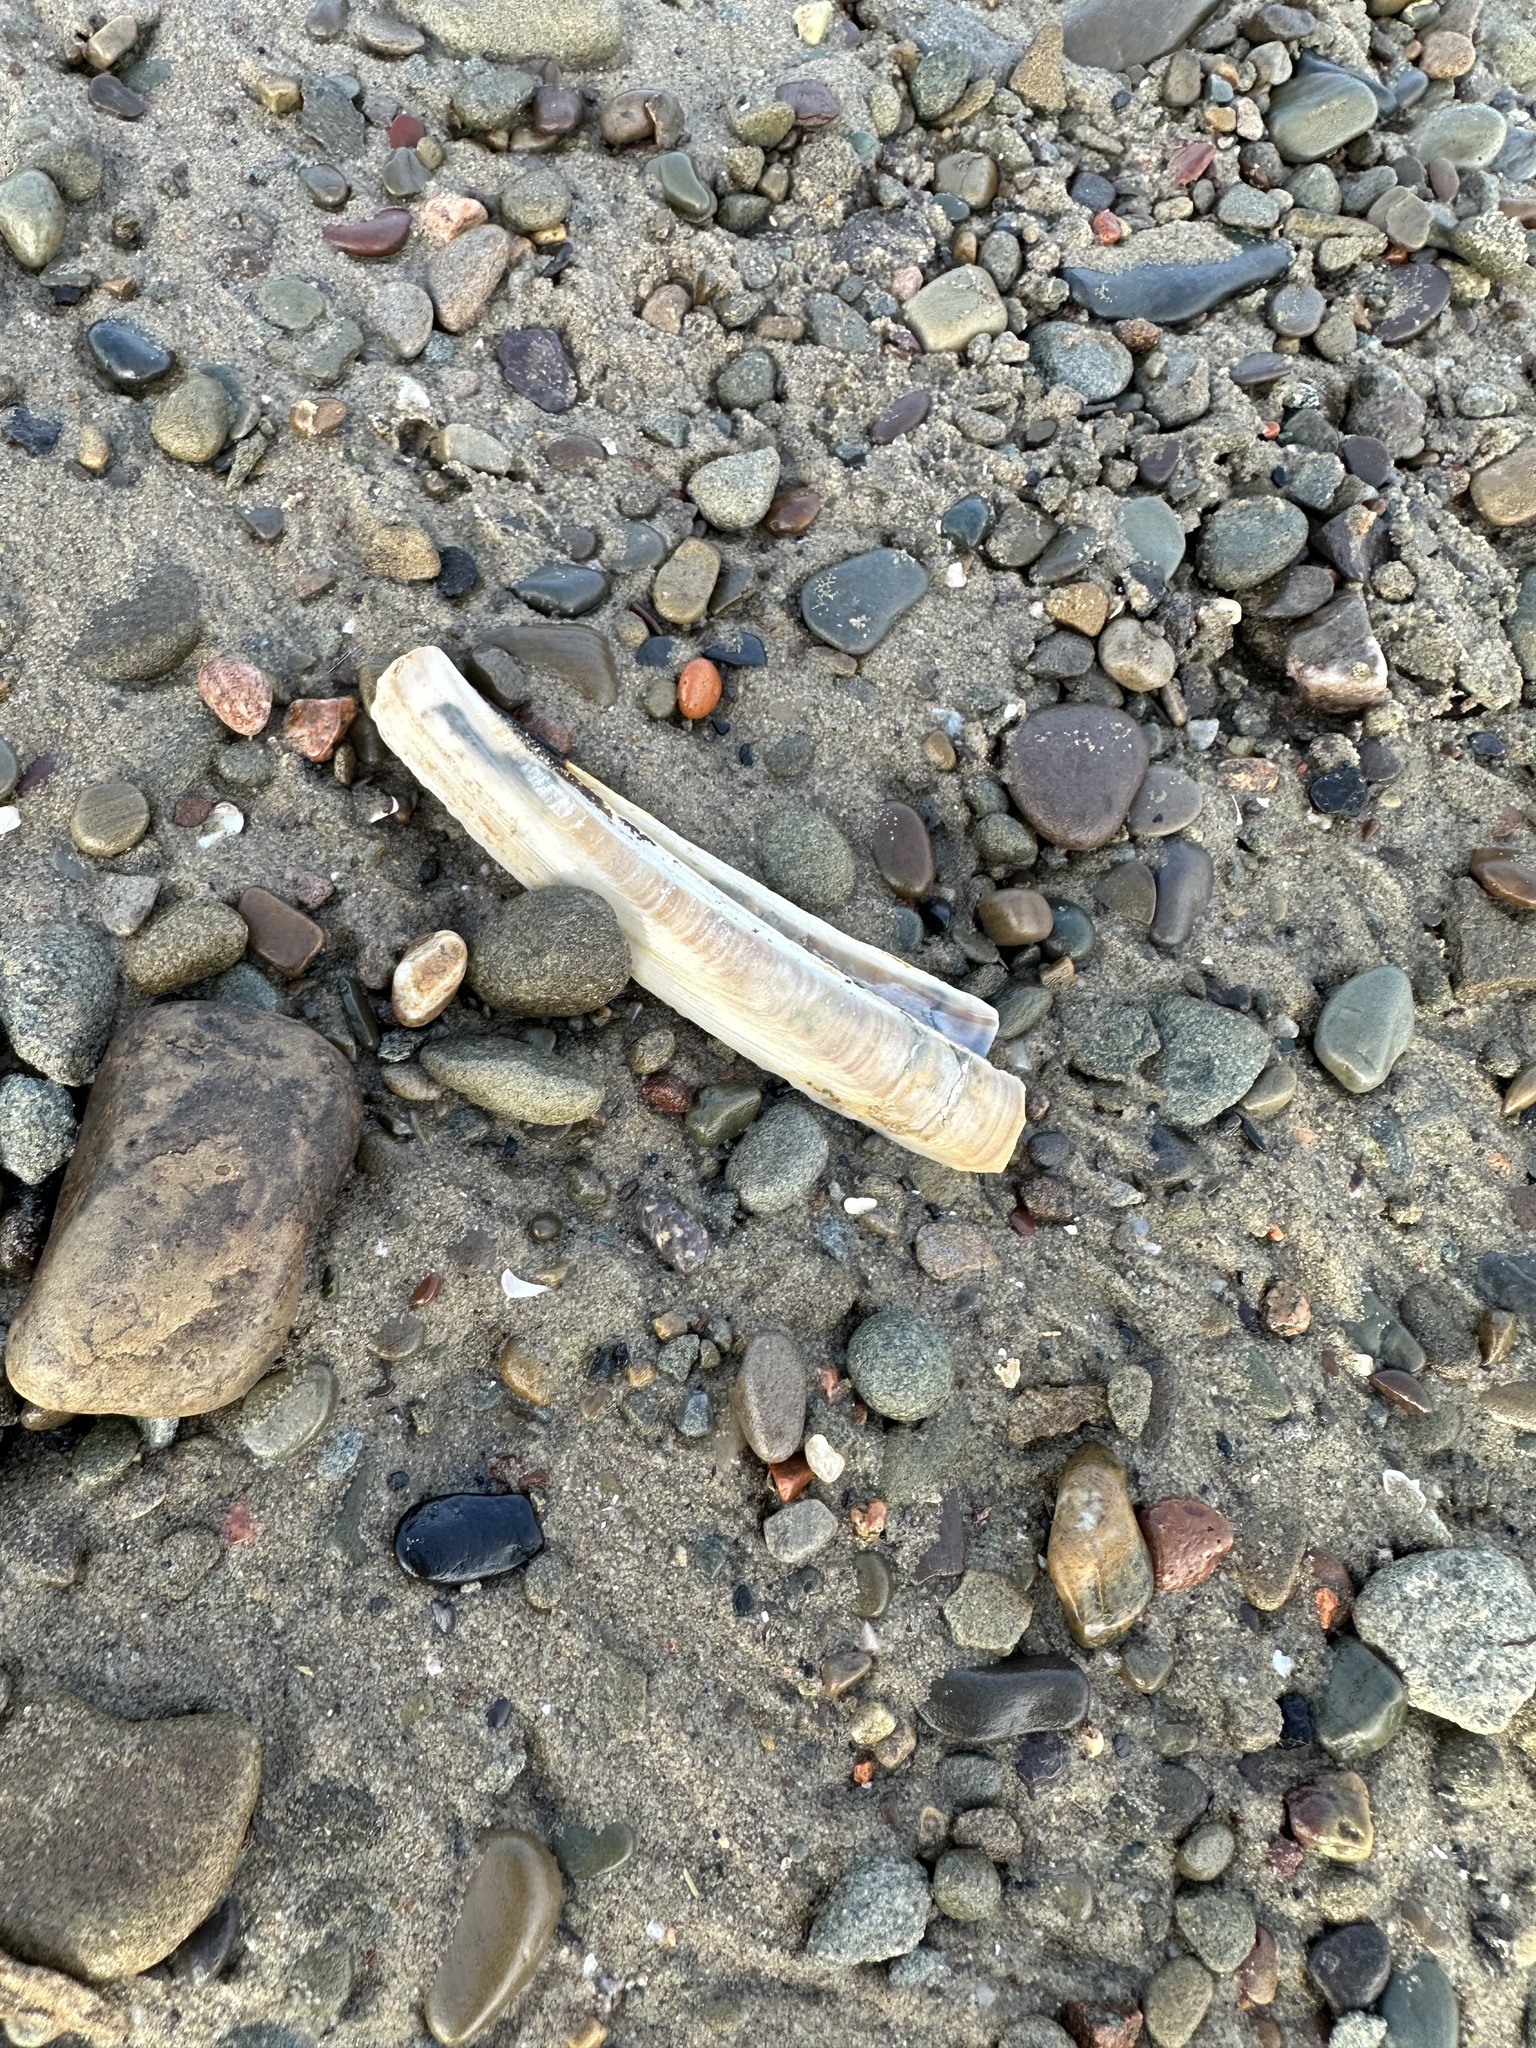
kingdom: Animalia
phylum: Mollusca
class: Bivalvia
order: Adapedonta
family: Pharidae
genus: Ensis
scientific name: Ensis leei
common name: American jack knife clam
